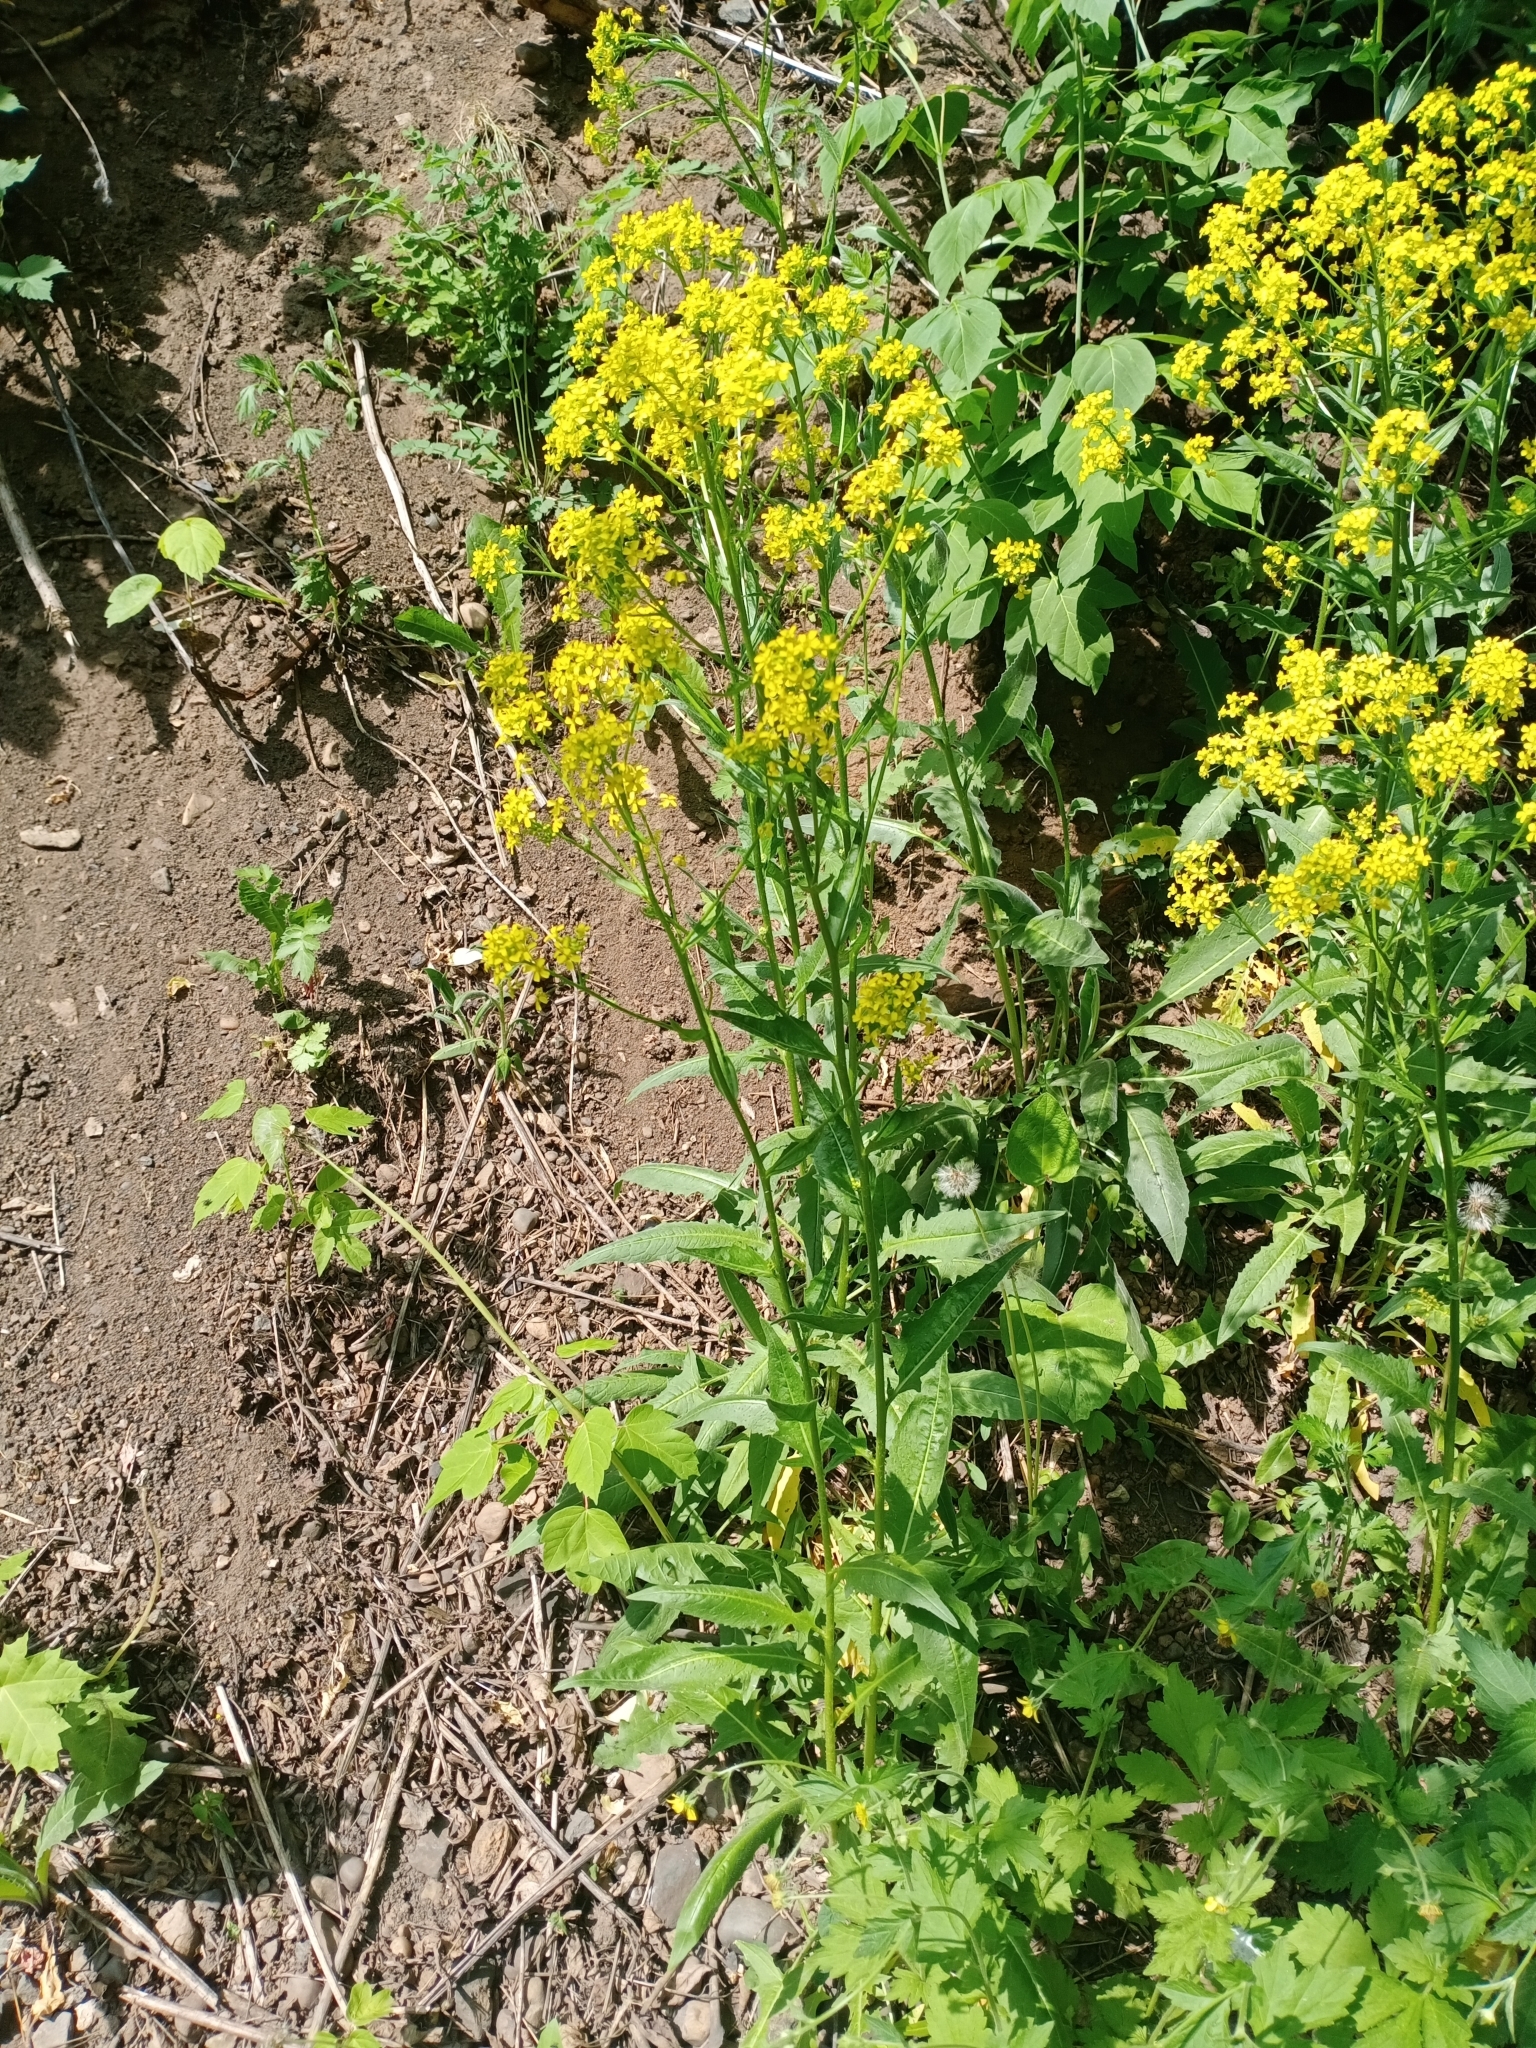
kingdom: Plantae
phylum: Tracheophyta
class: Magnoliopsida
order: Brassicales
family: Brassicaceae
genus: Bunias
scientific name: Bunias orientalis
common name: Warty-cabbage
